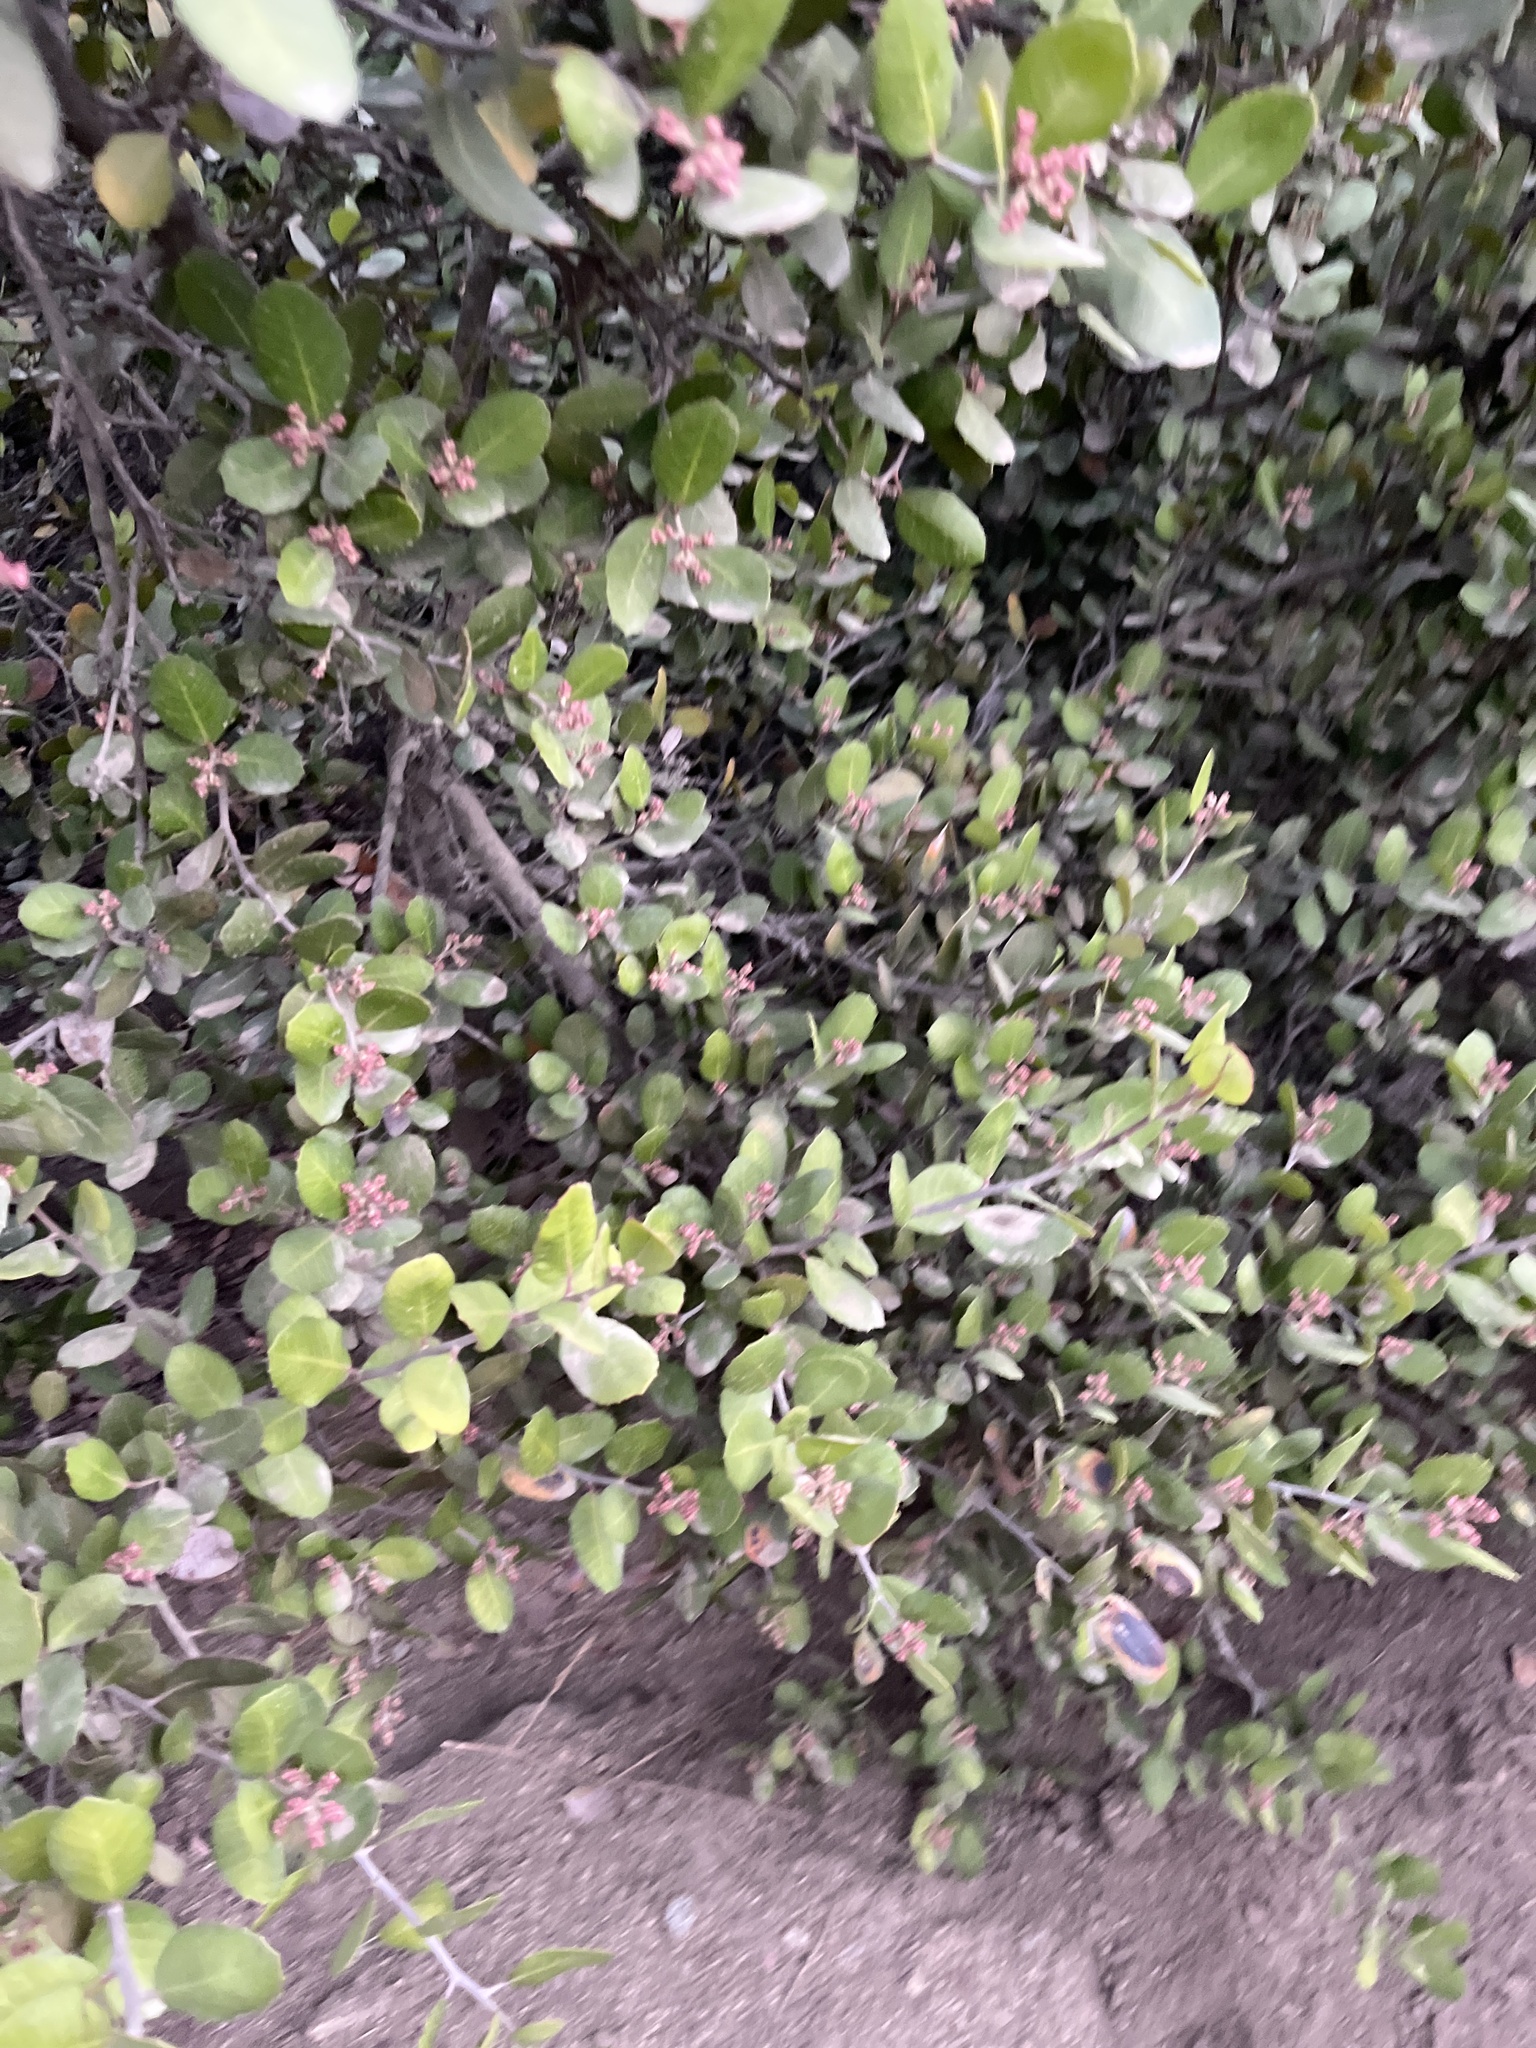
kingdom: Plantae
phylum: Tracheophyta
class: Magnoliopsida
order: Sapindales
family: Anacardiaceae
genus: Rhus
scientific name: Rhus integrifolia
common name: Lemonade sumac
